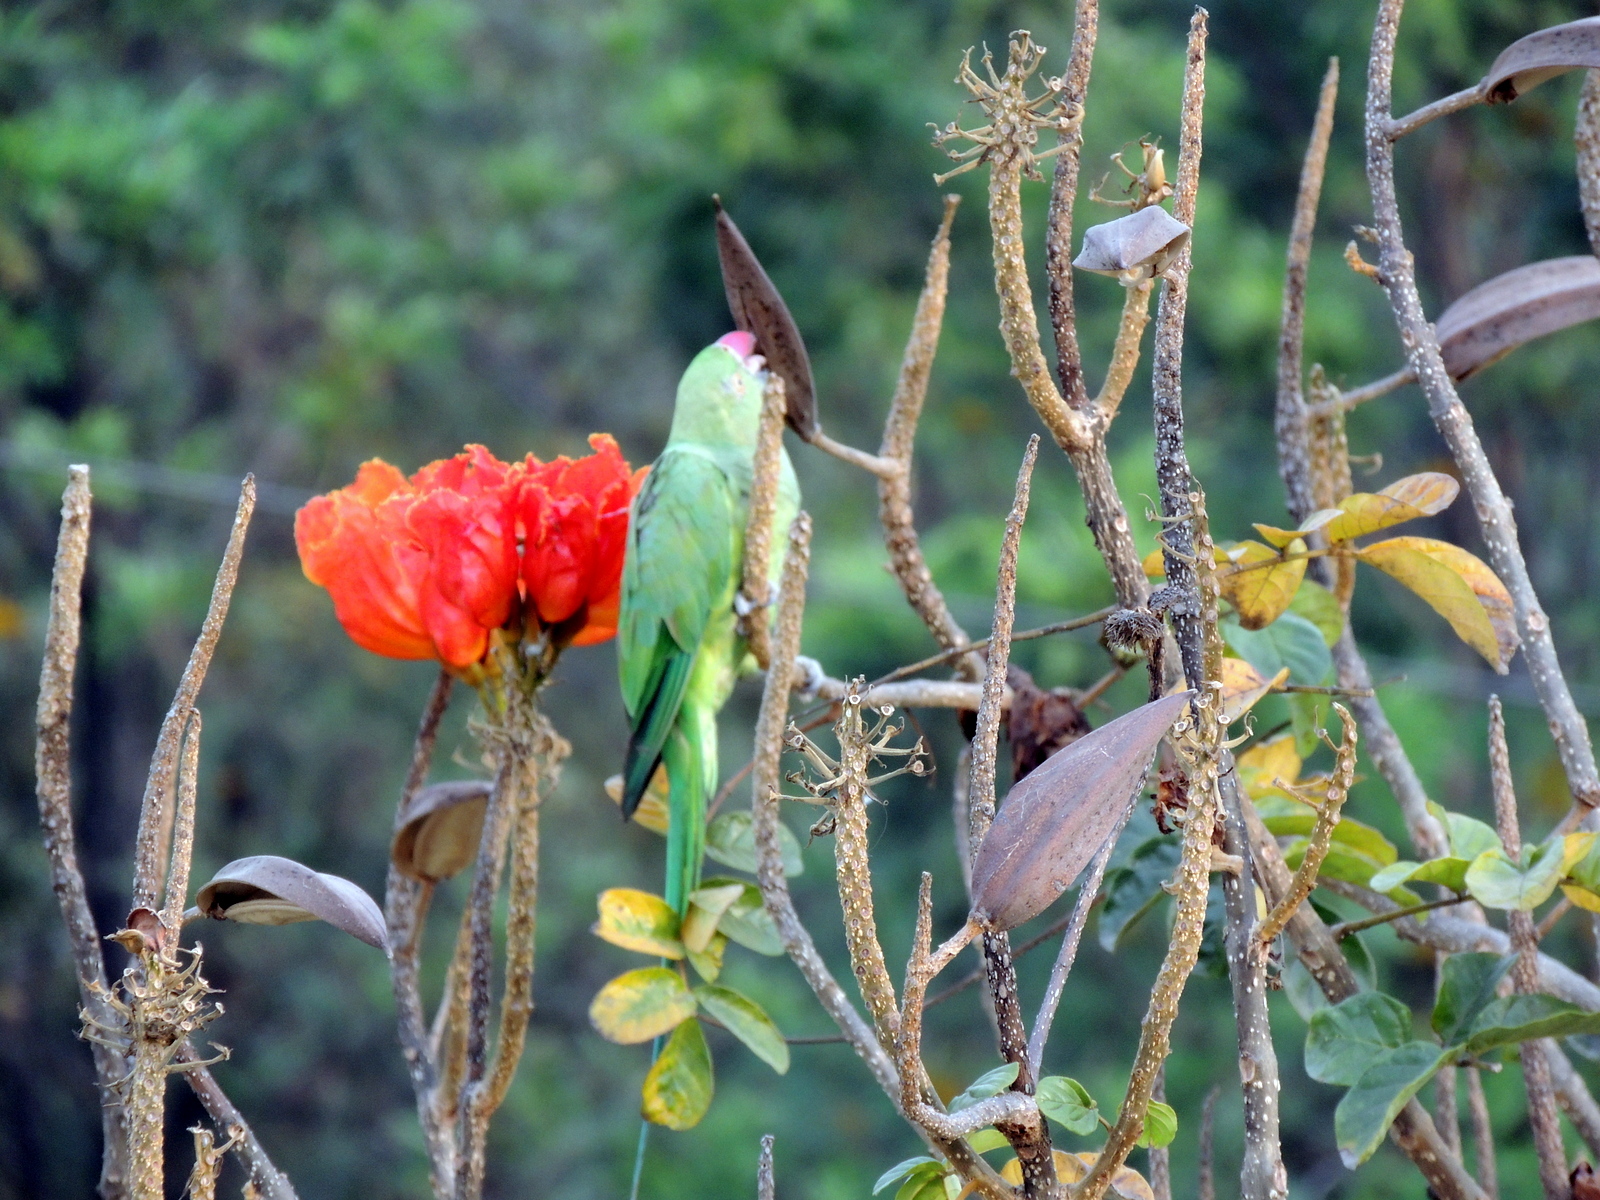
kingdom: Animalia
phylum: Chordata
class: Aves
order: Psittaciformes
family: Psittacidae
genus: Psittacula
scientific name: Psittacula krameri
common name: Rose-ringed parakeet
